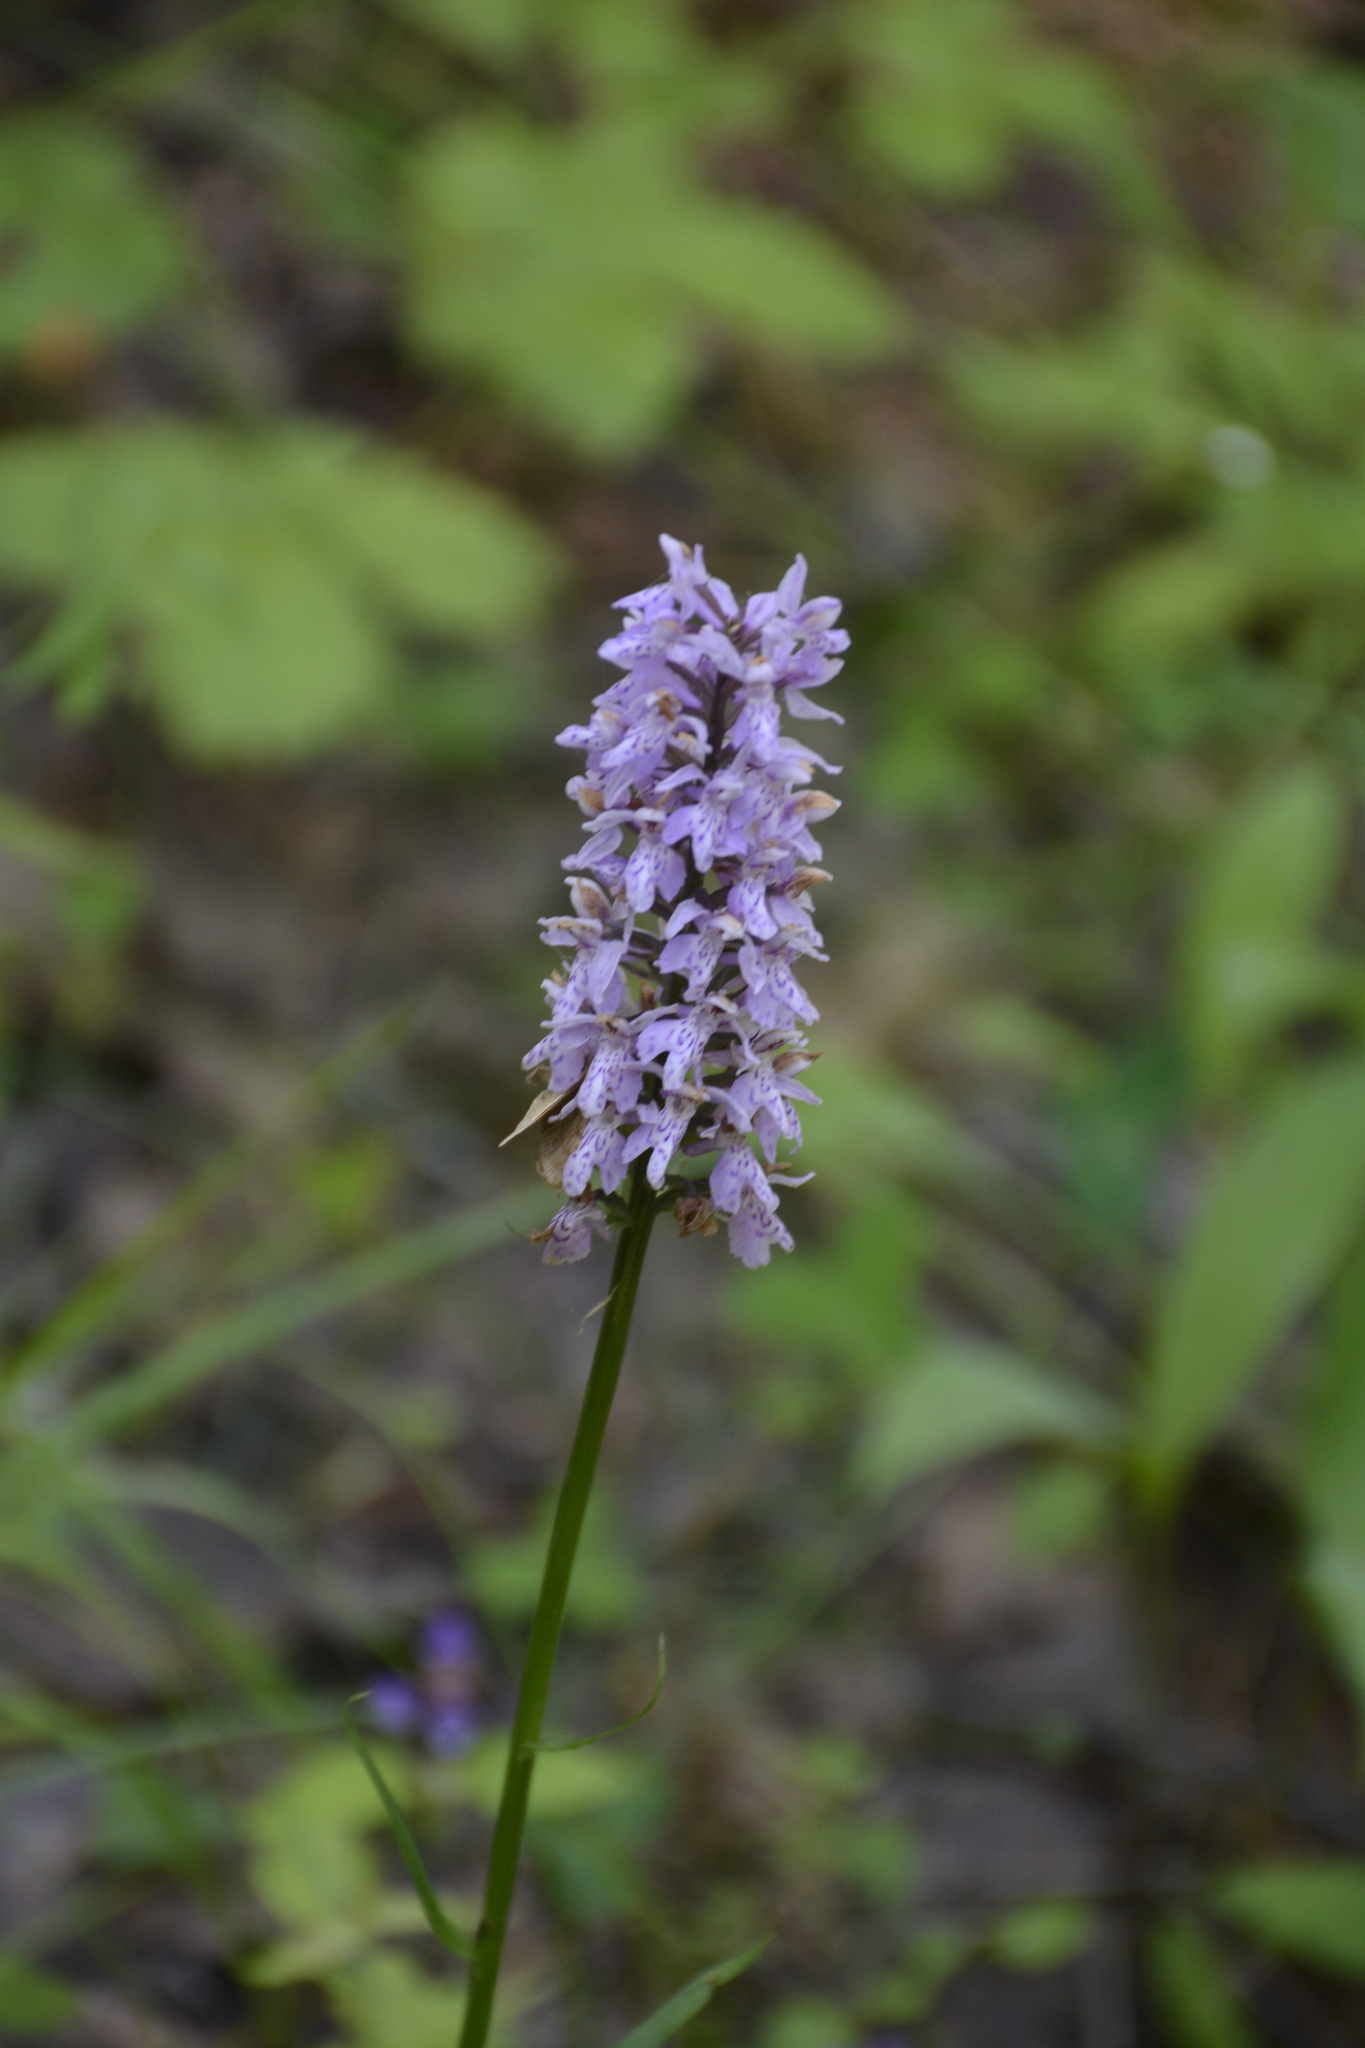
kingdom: Plantae
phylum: Tracheophyta
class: Liliopsida
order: Asparagales
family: Orchidaceae
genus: Dactylorhiza
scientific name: Dactylorhiza maculata
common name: Heath spotted-orchid
